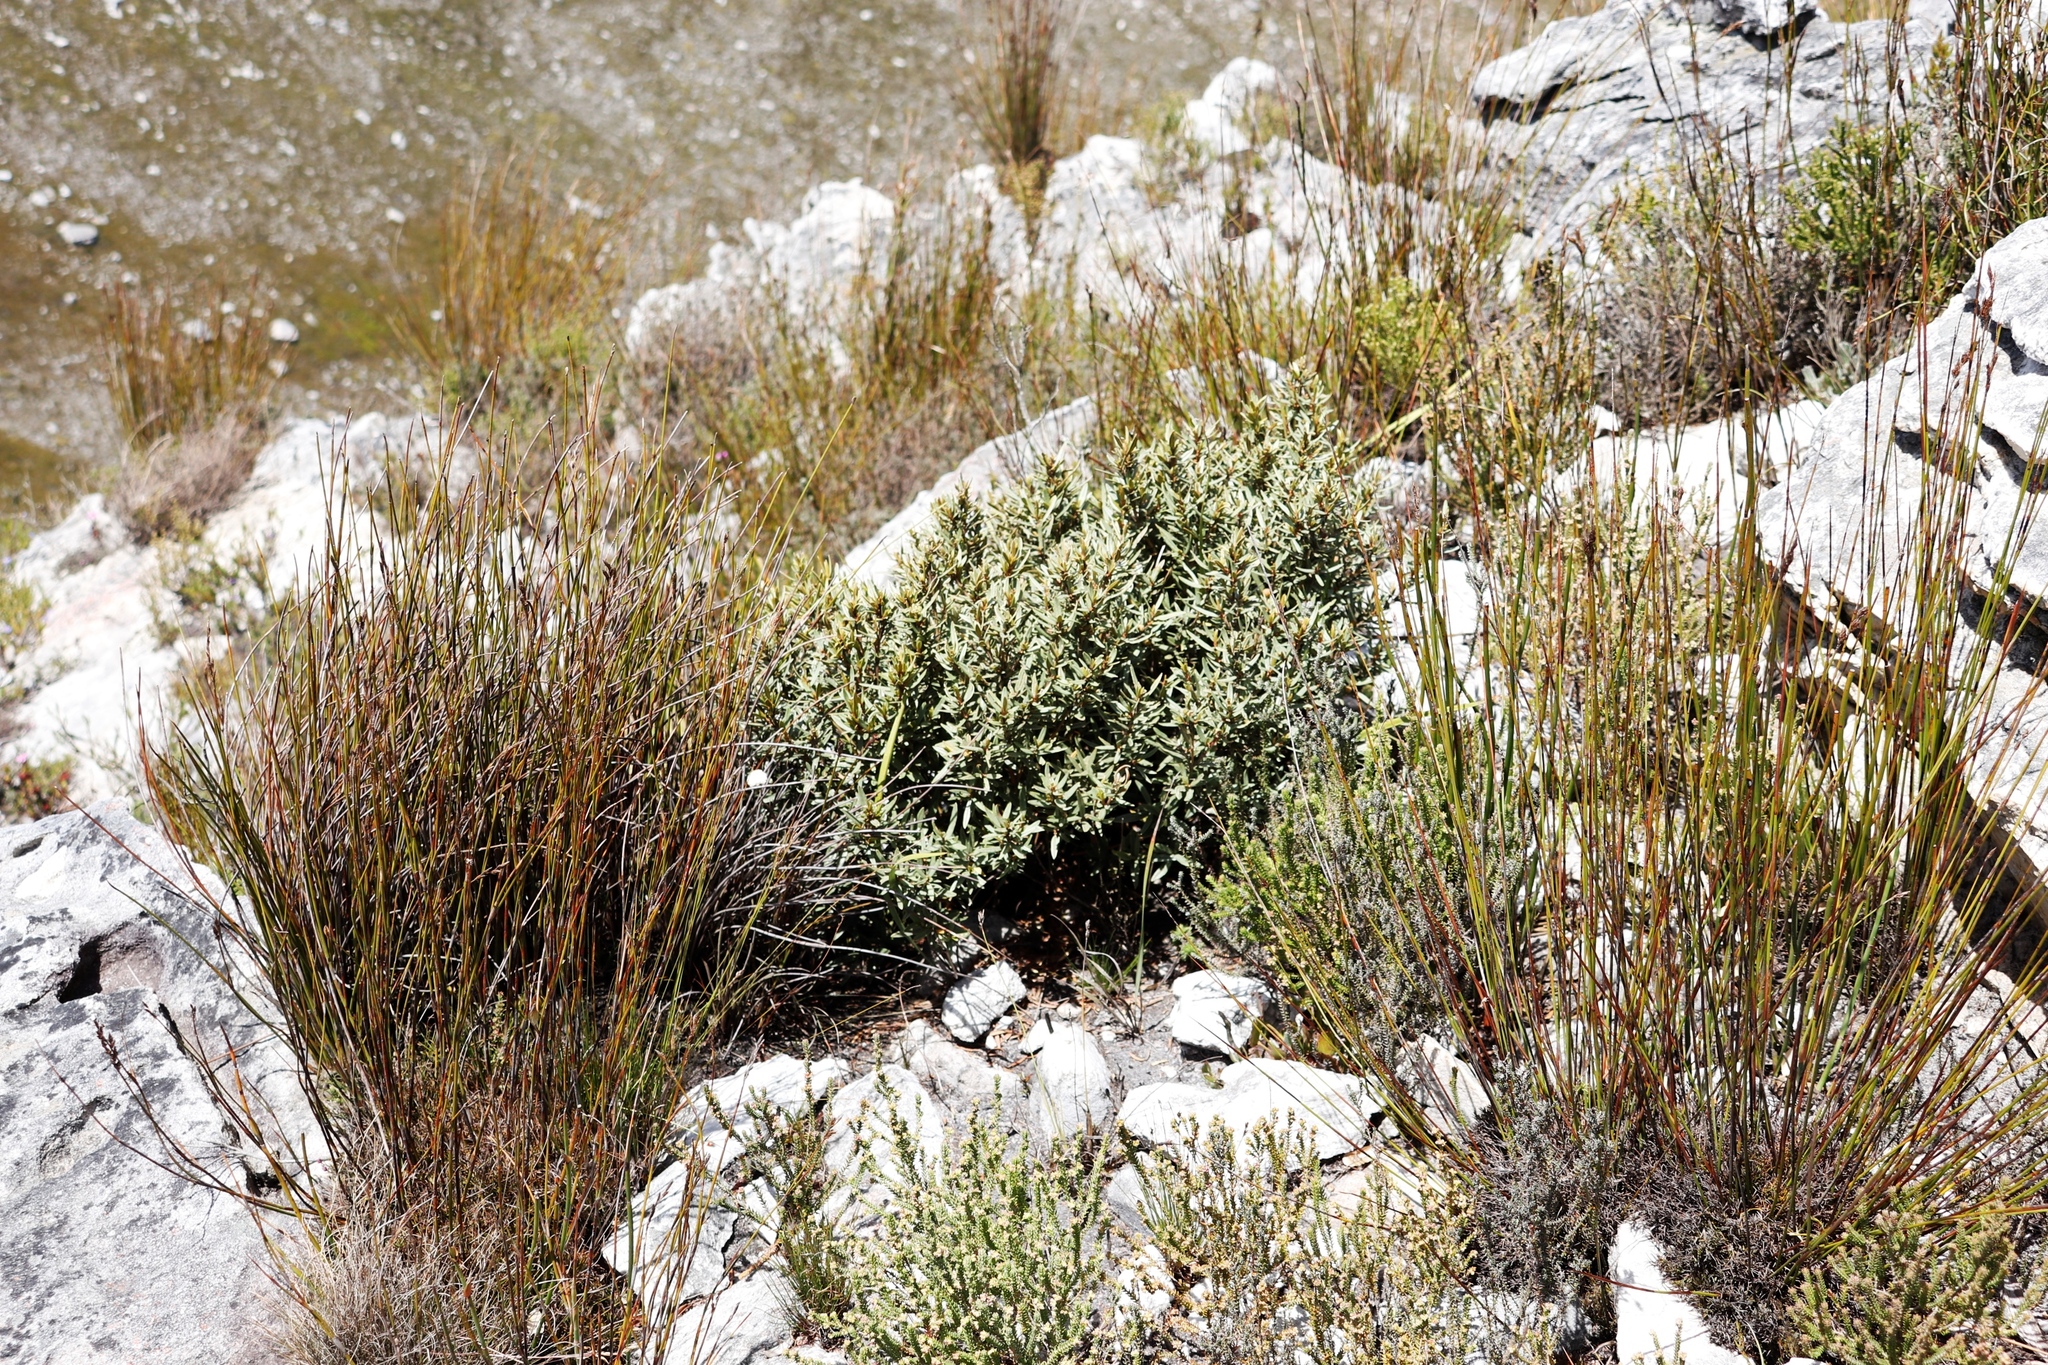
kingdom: Plantae
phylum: Tracheophyta
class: Magnoliopsida
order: Cornales
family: Grubbiaceae
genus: Grubbia
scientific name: Grubbia tomentosa
